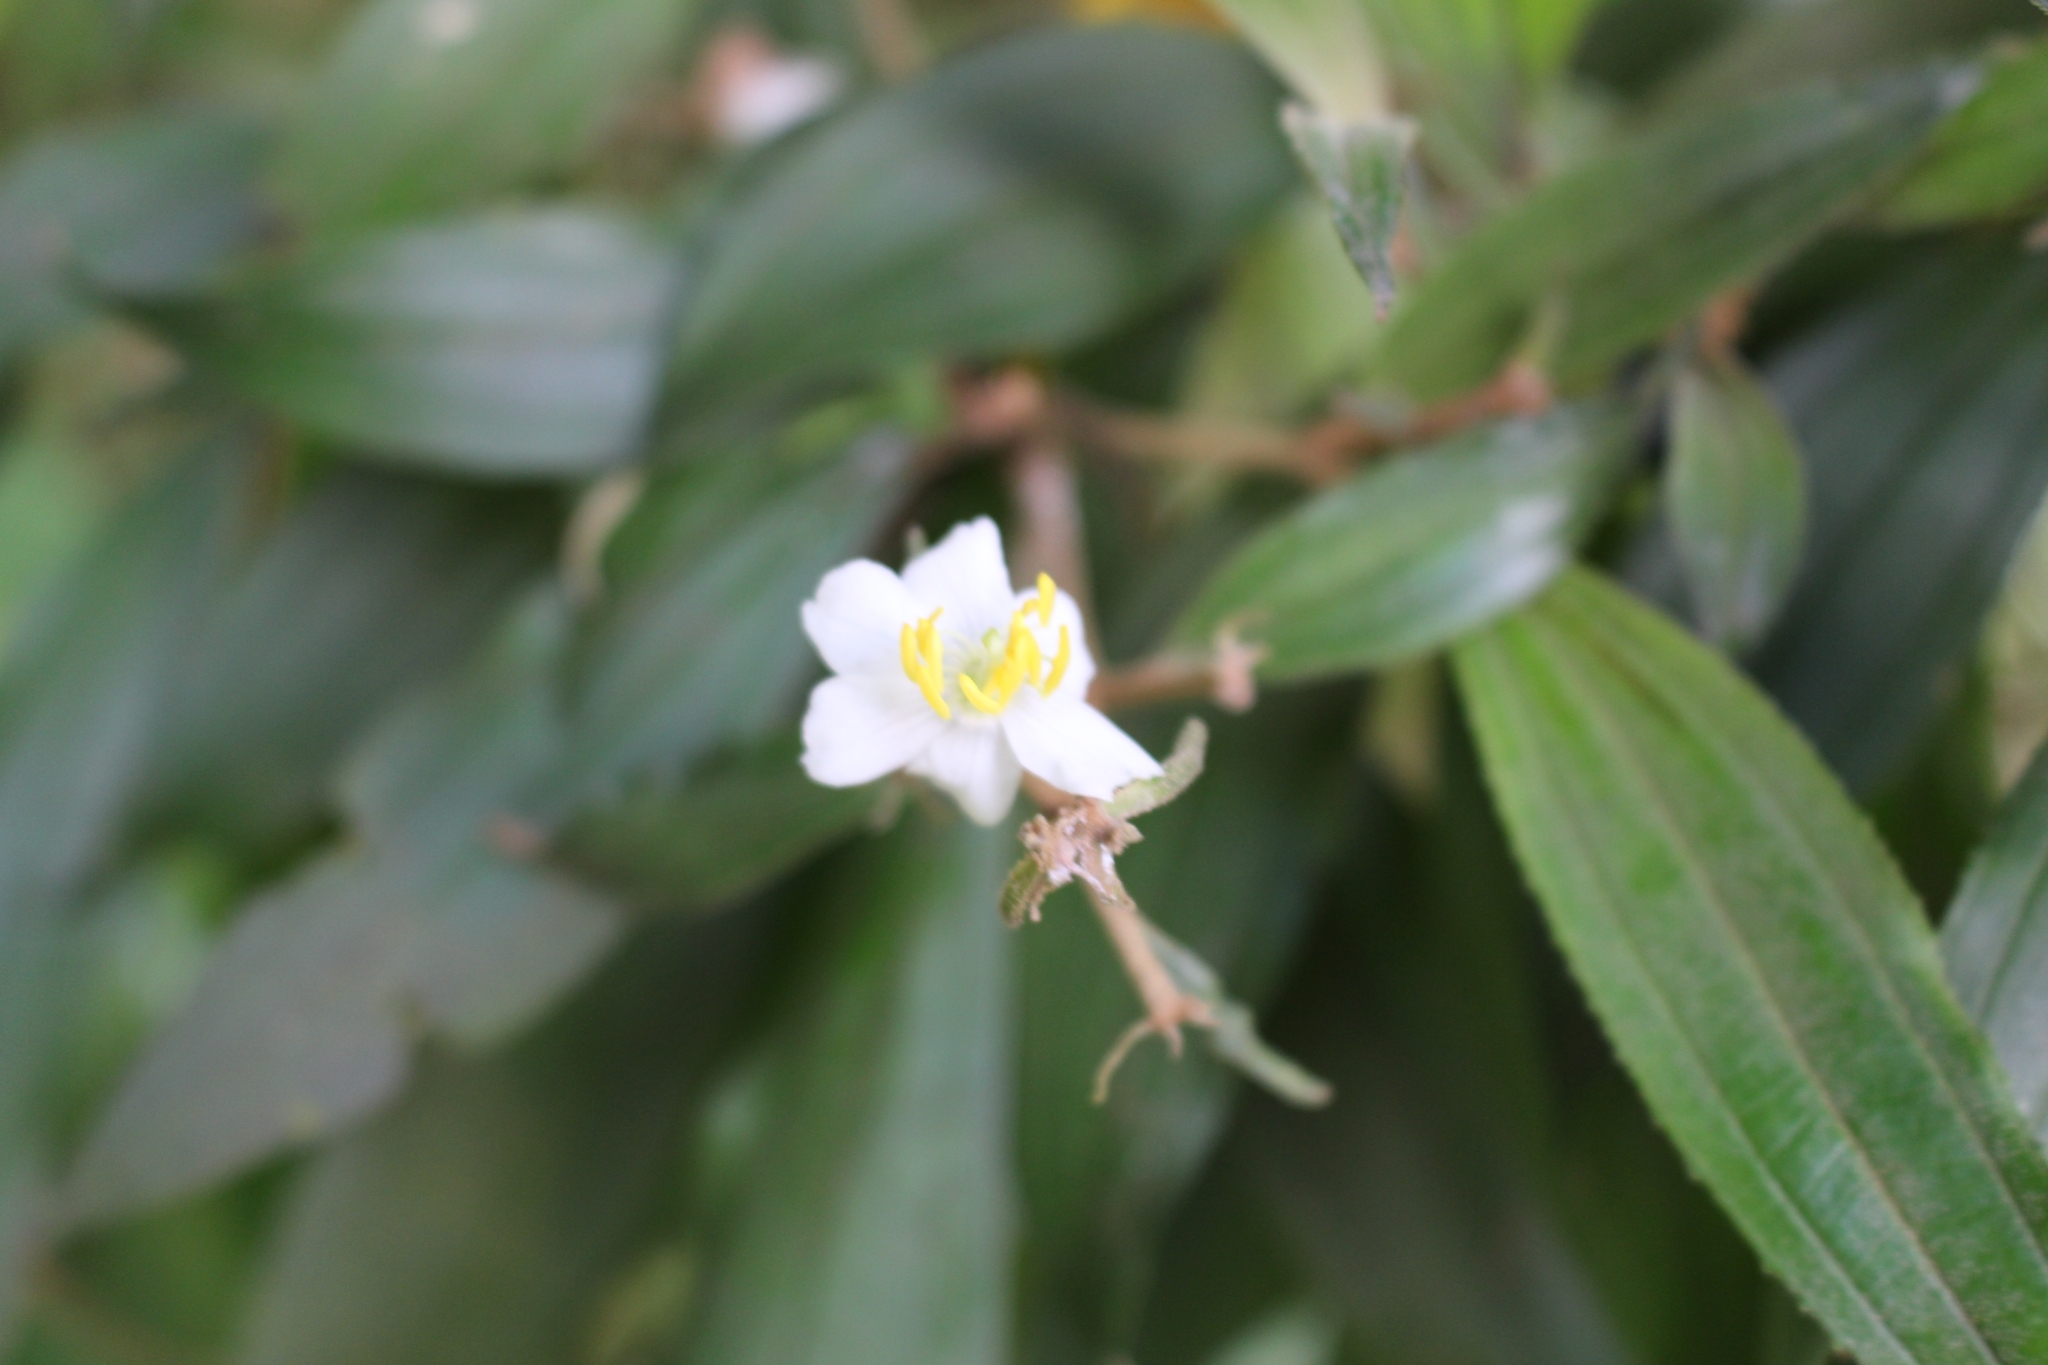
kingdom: Plantae
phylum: Tracheophyta
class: Magnoliopsida
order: Myrtales
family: Melastomataceae
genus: Miconia
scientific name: Miconia xalapensis
